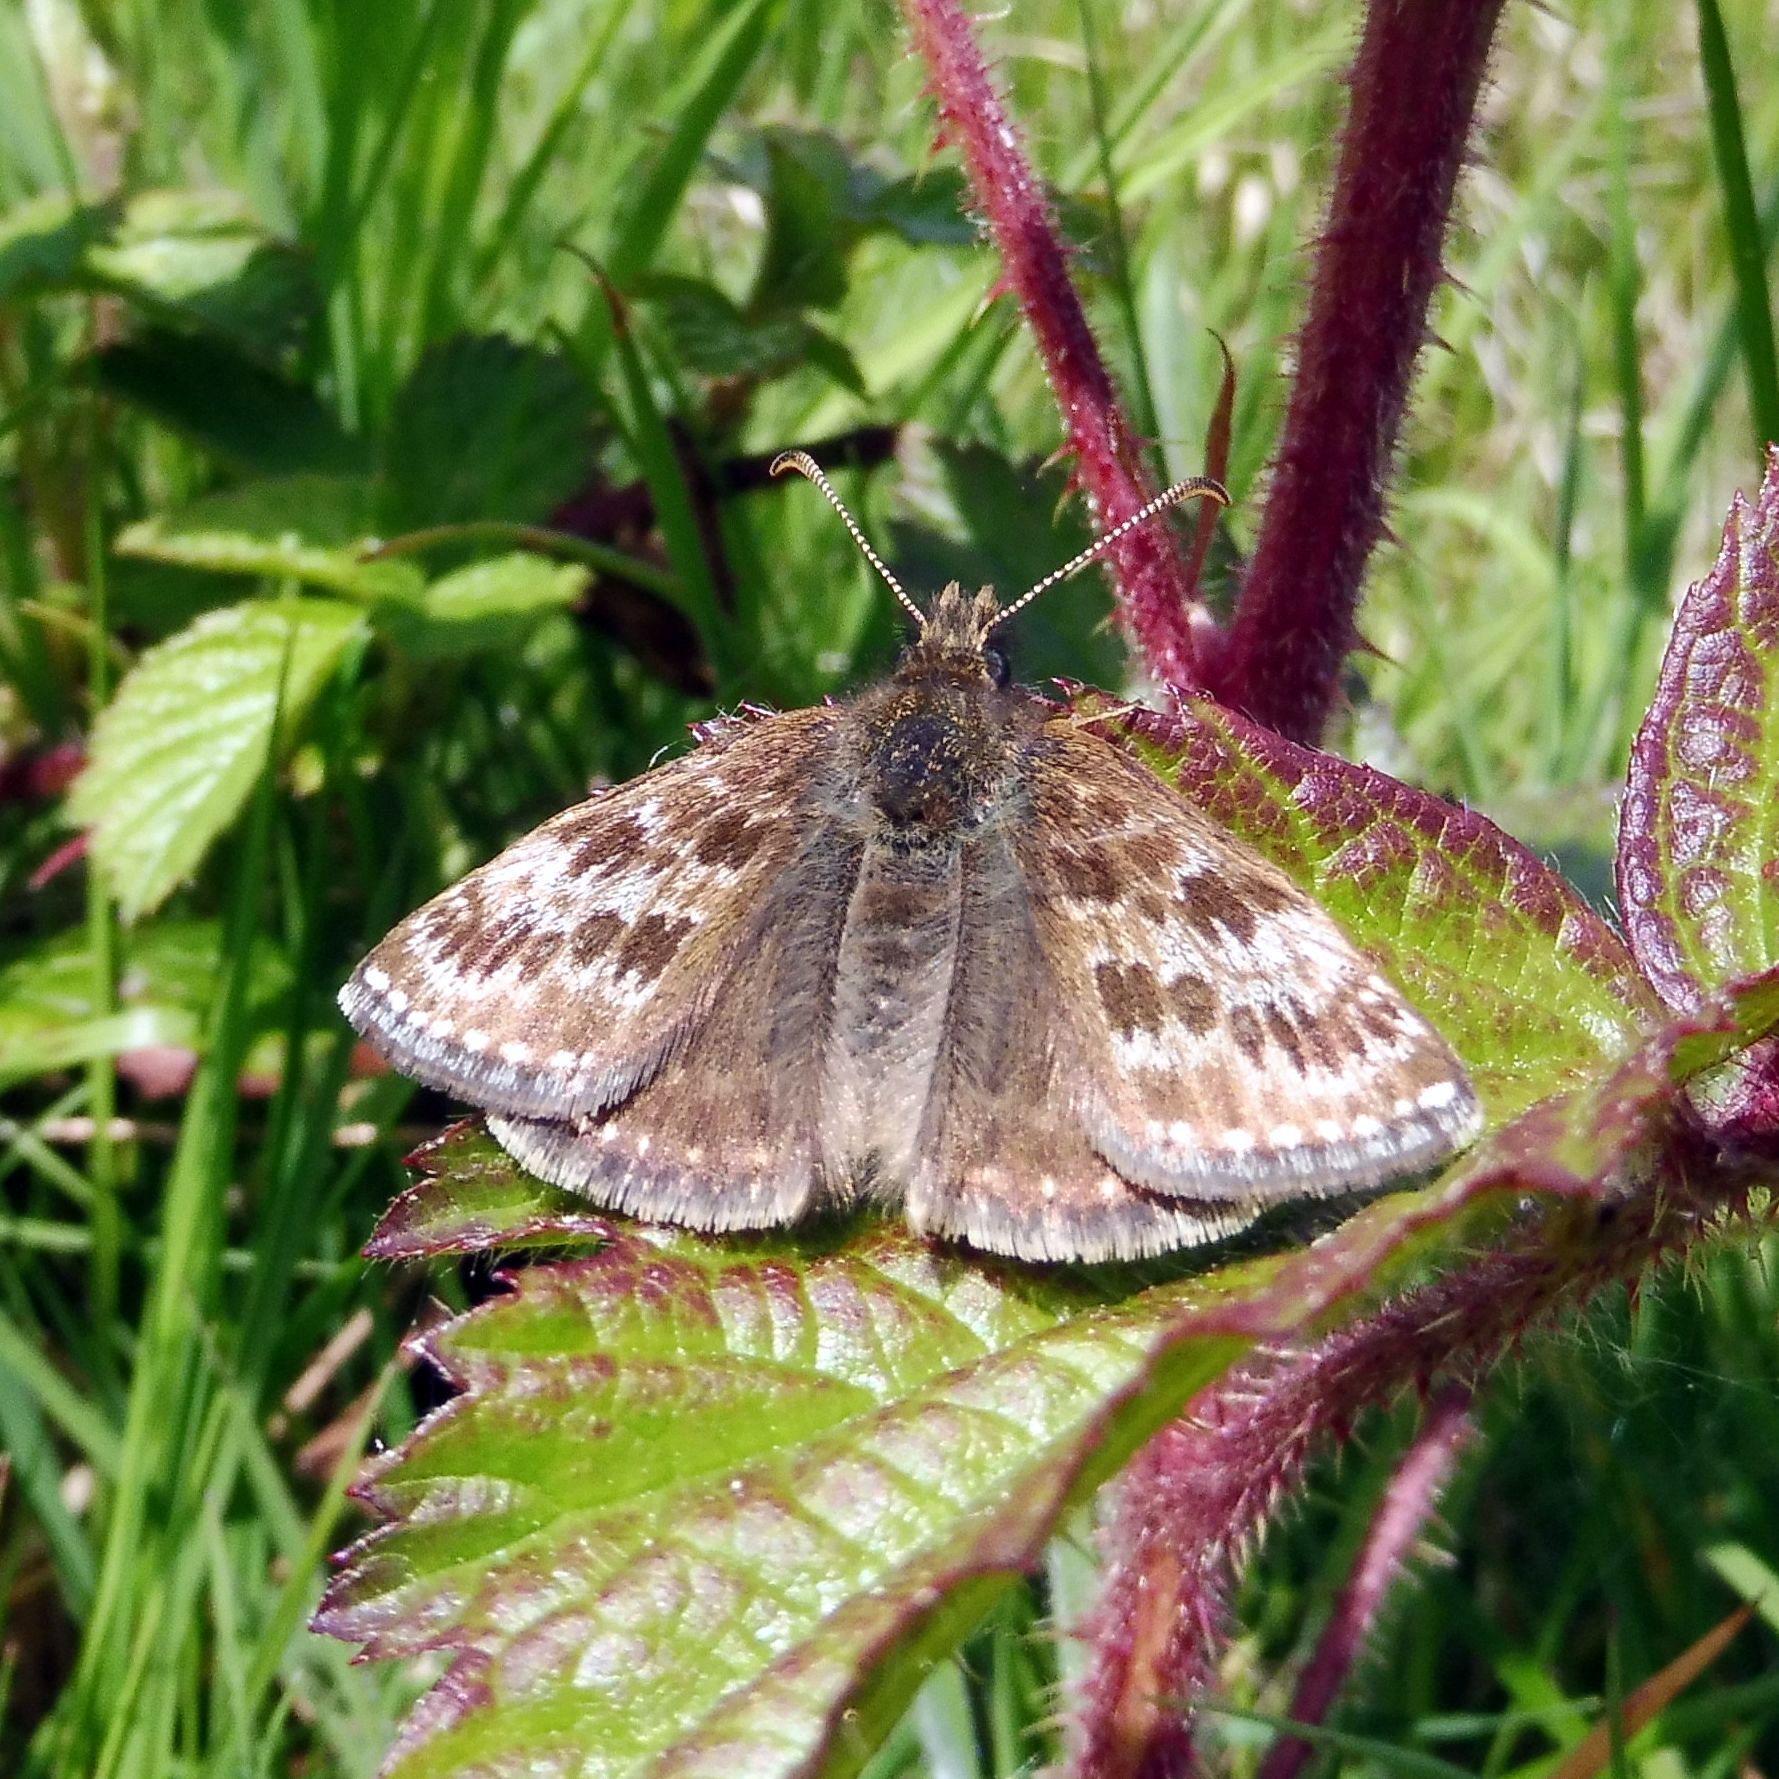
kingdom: Animalia
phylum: Arthropoda
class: Insecta
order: Lepidoptera
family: Hesperiidae
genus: Erynnis
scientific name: Erynnis tages
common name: Dingy skipper
